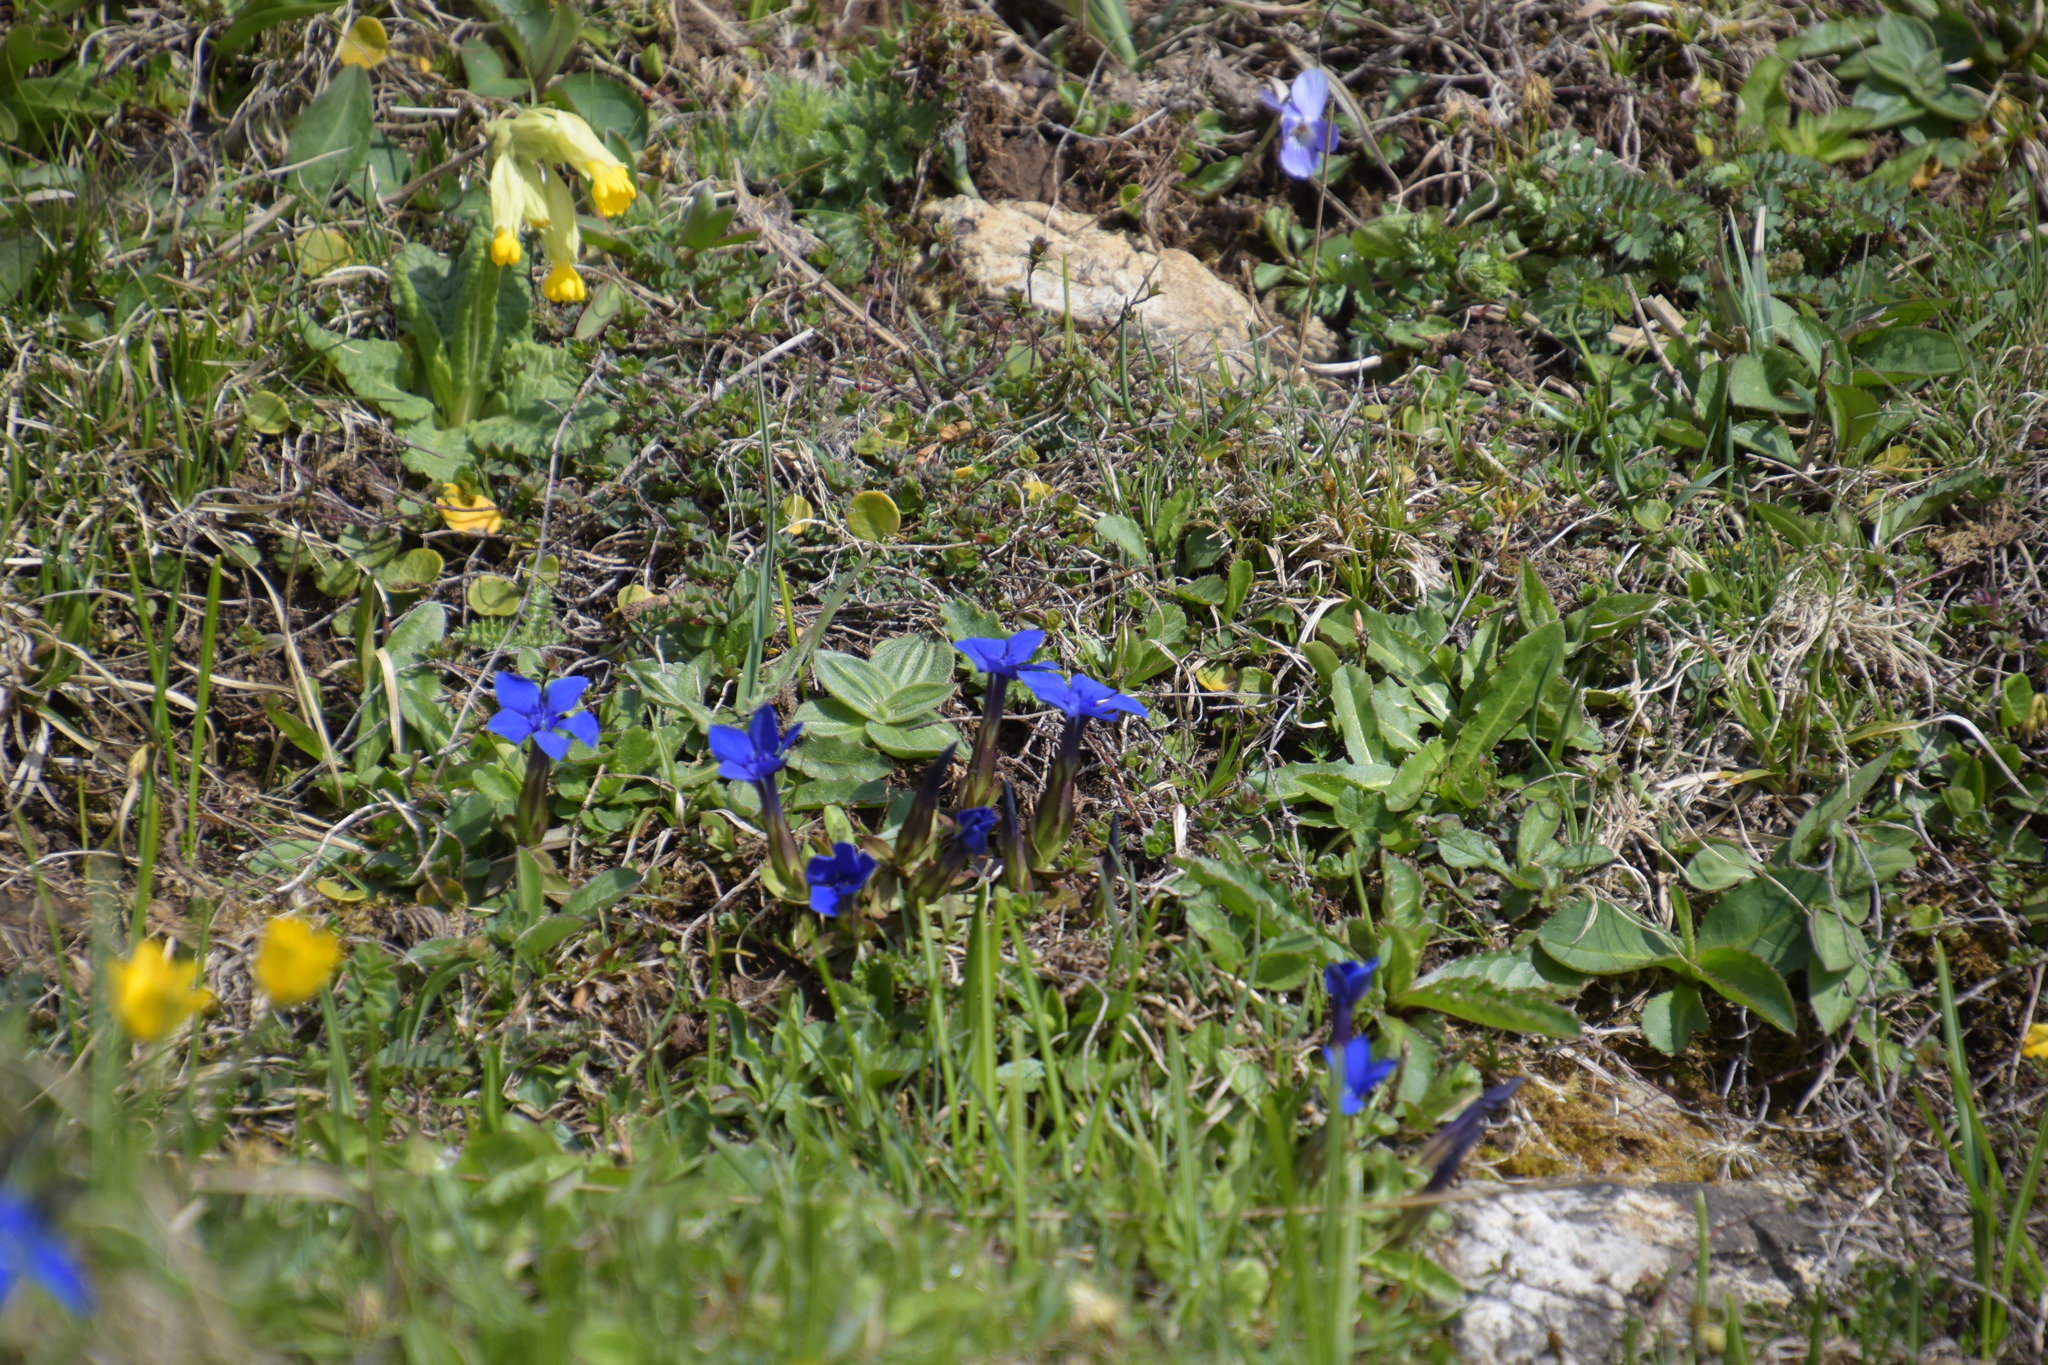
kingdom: Plantae
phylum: Tracheophyta
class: Magnoliopsida
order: Gentianales
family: Gentianaceae
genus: Gentiana
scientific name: Gentiana verna
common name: Spring gentian
